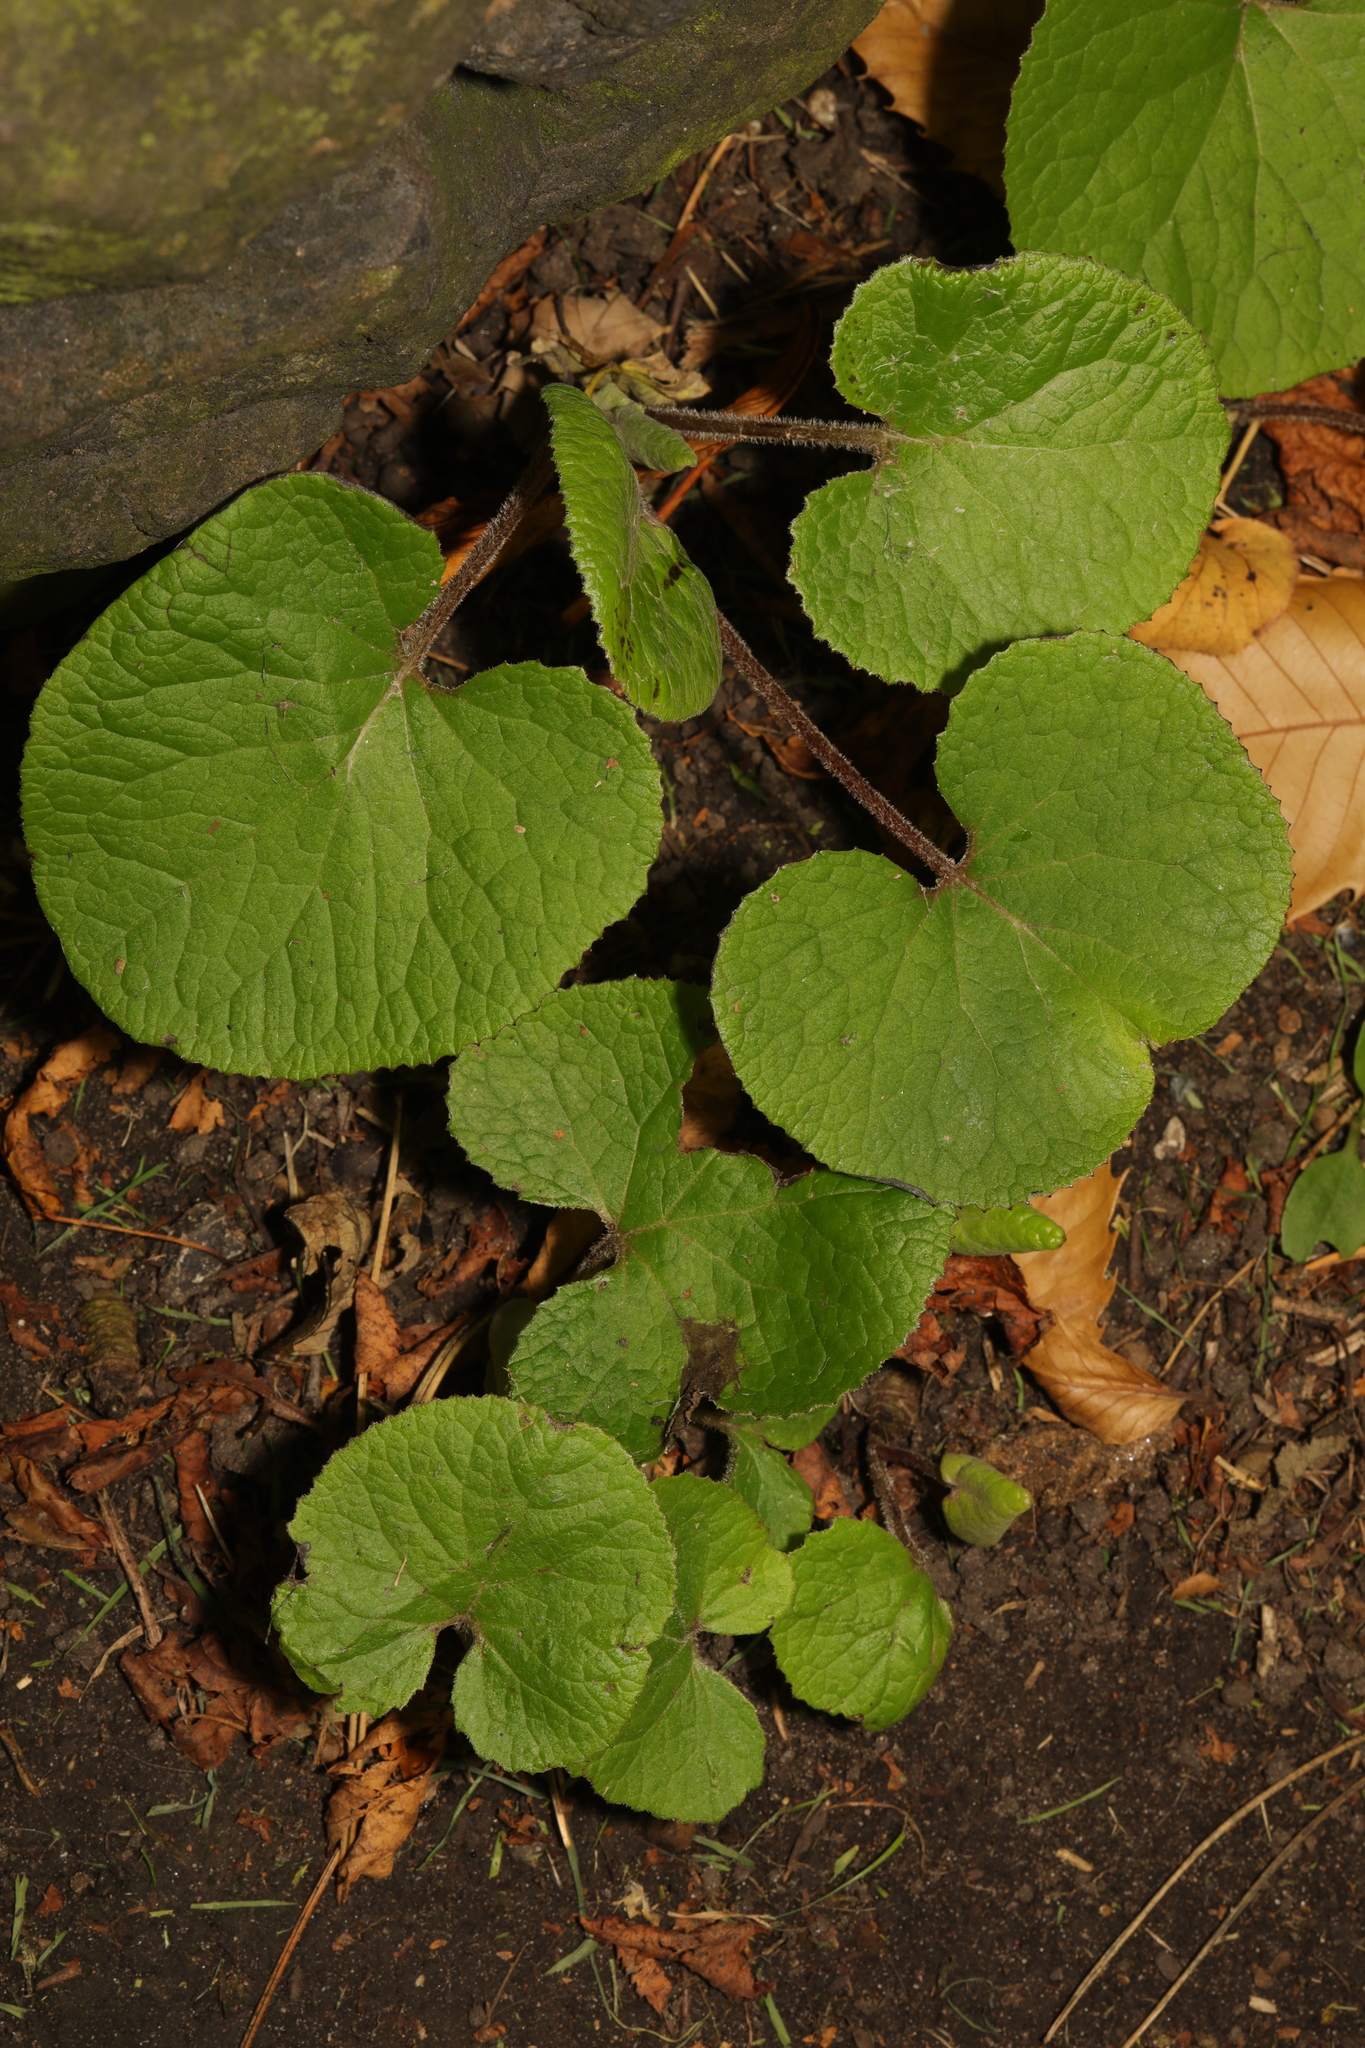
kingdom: Plantae
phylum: Tracheophyta
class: Magnoliopsida
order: Asterales
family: Asteraceae
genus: Petasites
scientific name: Petasites pyrenaicus
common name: Winter heliotrope
